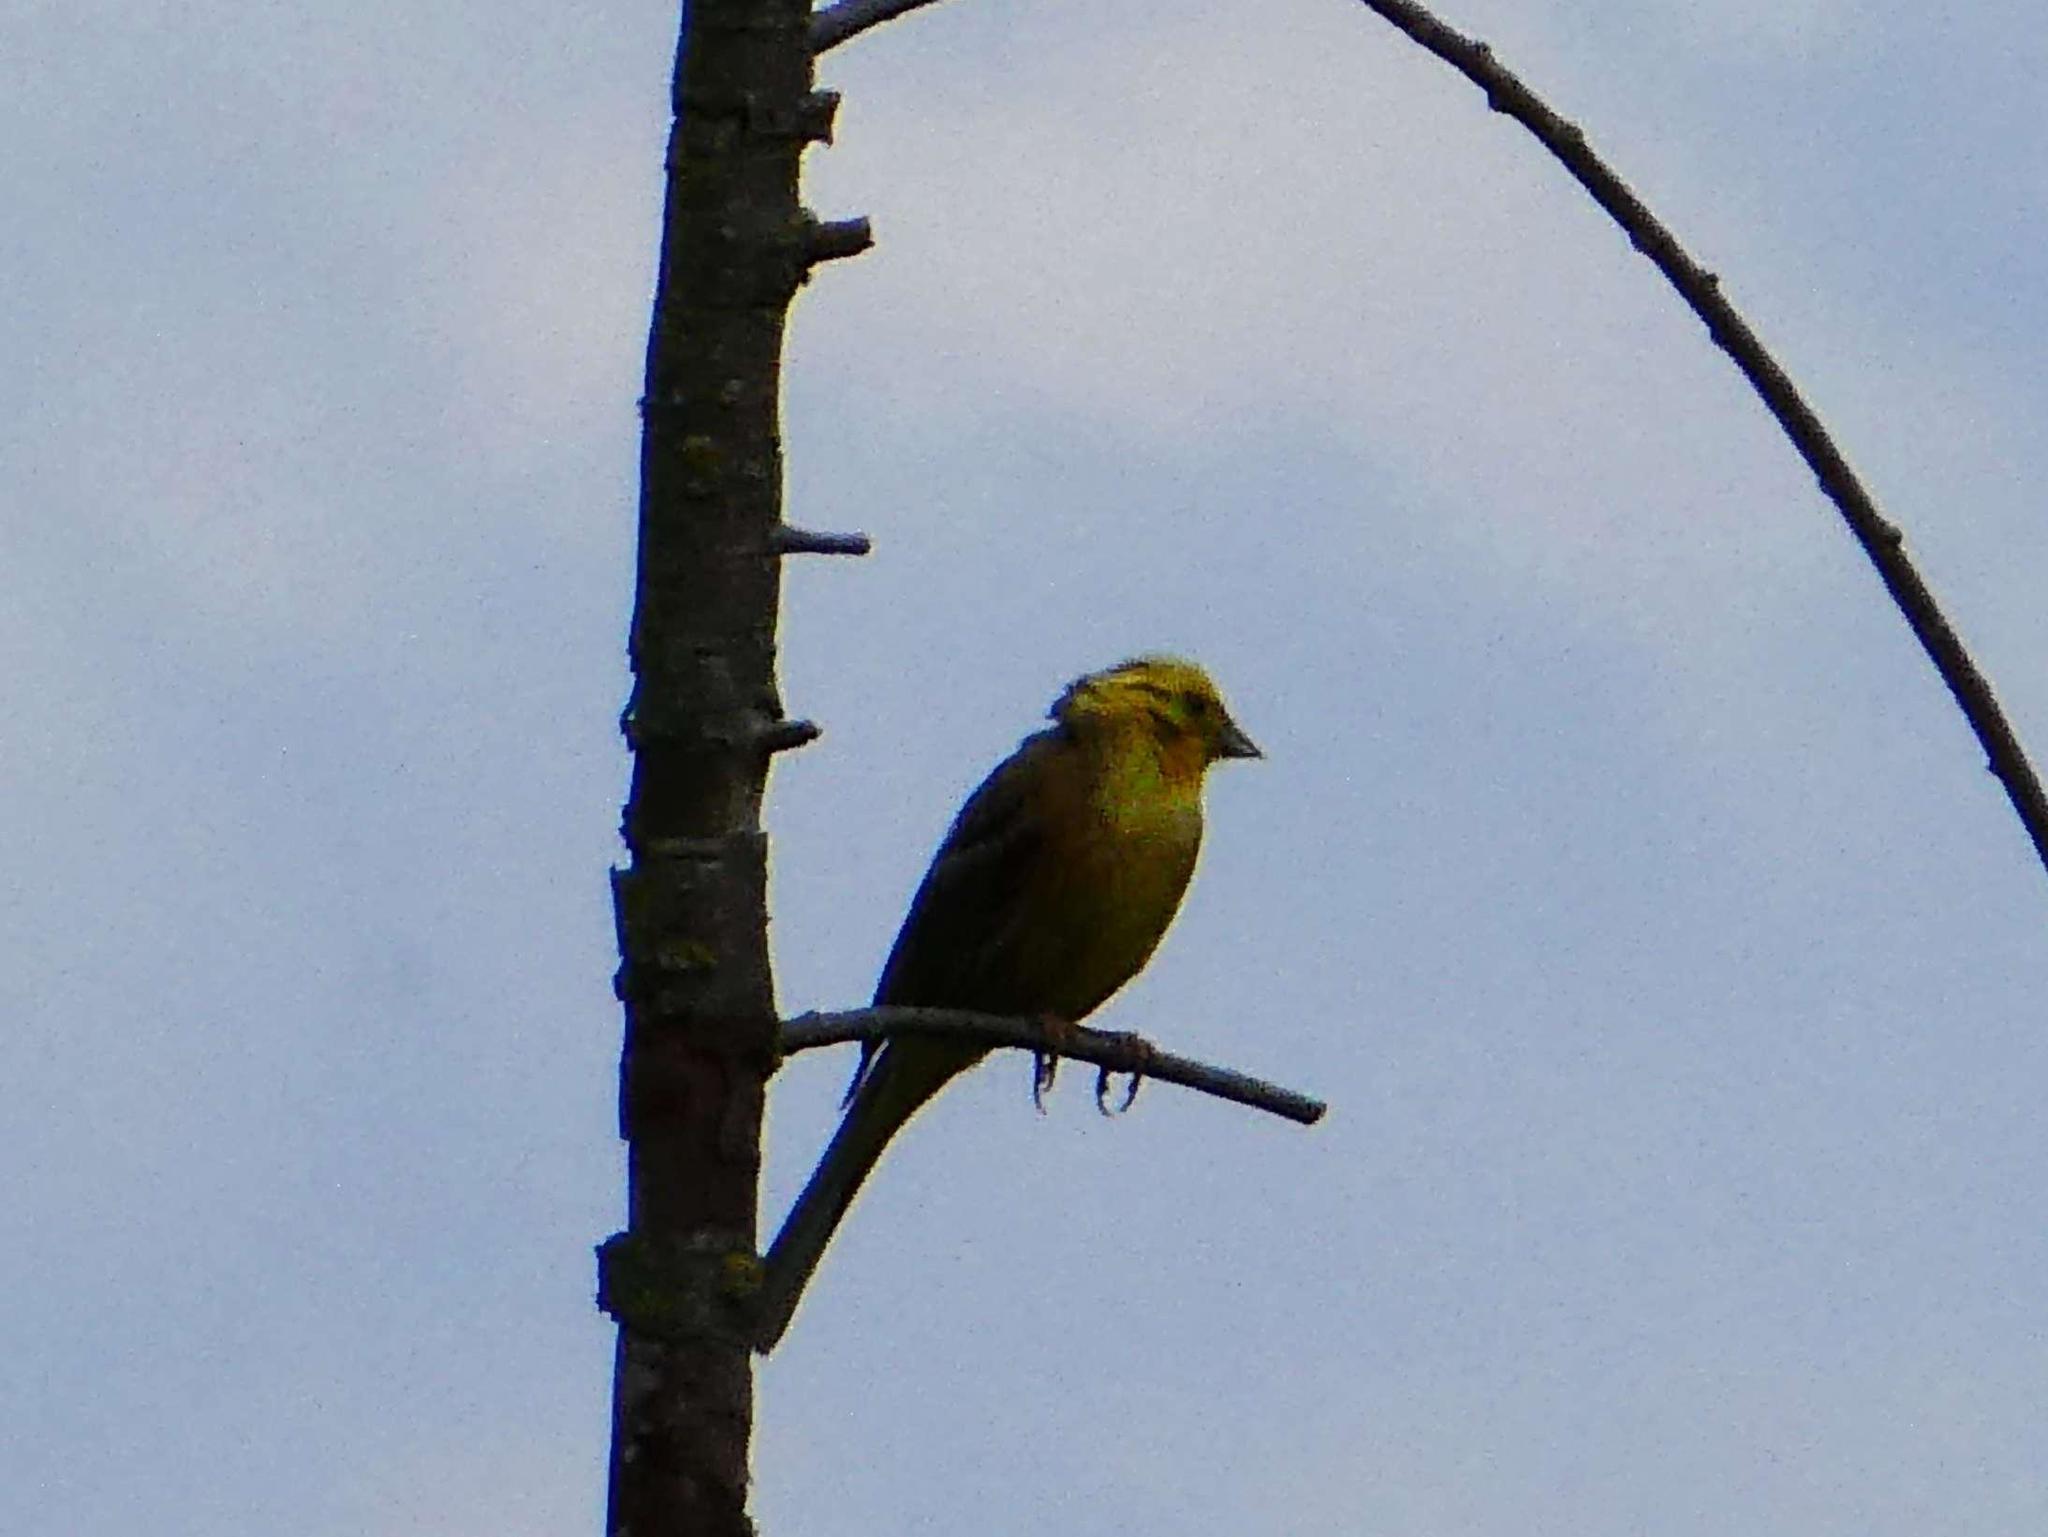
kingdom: Animalia
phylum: Chordata
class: Aves
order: Passeriformes
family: Emberizidae
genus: Emberiza
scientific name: Emberiza citrinella
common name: Yellowhammer
